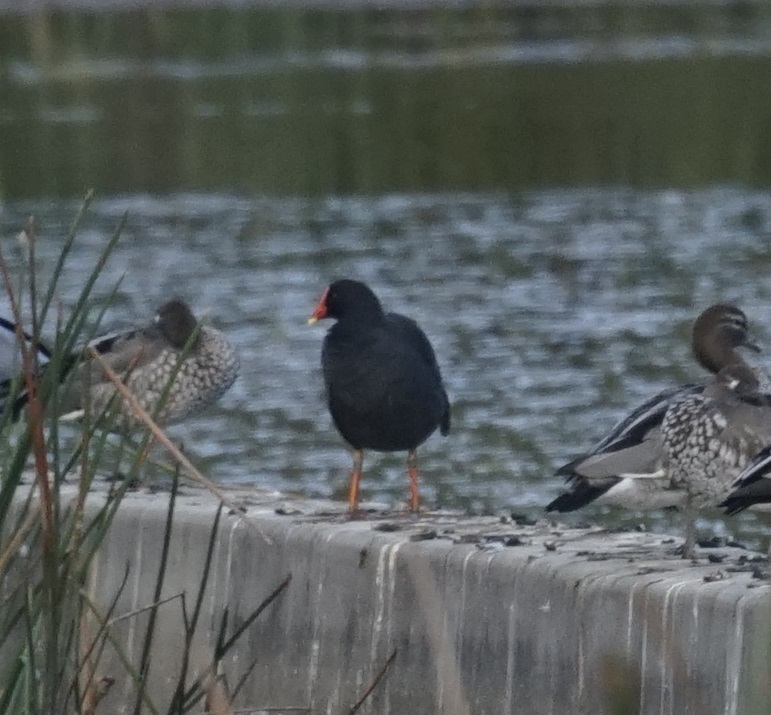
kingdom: Animalia
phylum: Chordata
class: Aves
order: Gruiformes
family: Rallidae
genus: Gallinula
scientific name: Gallinula tenebrosa
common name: Dusky moorhen
